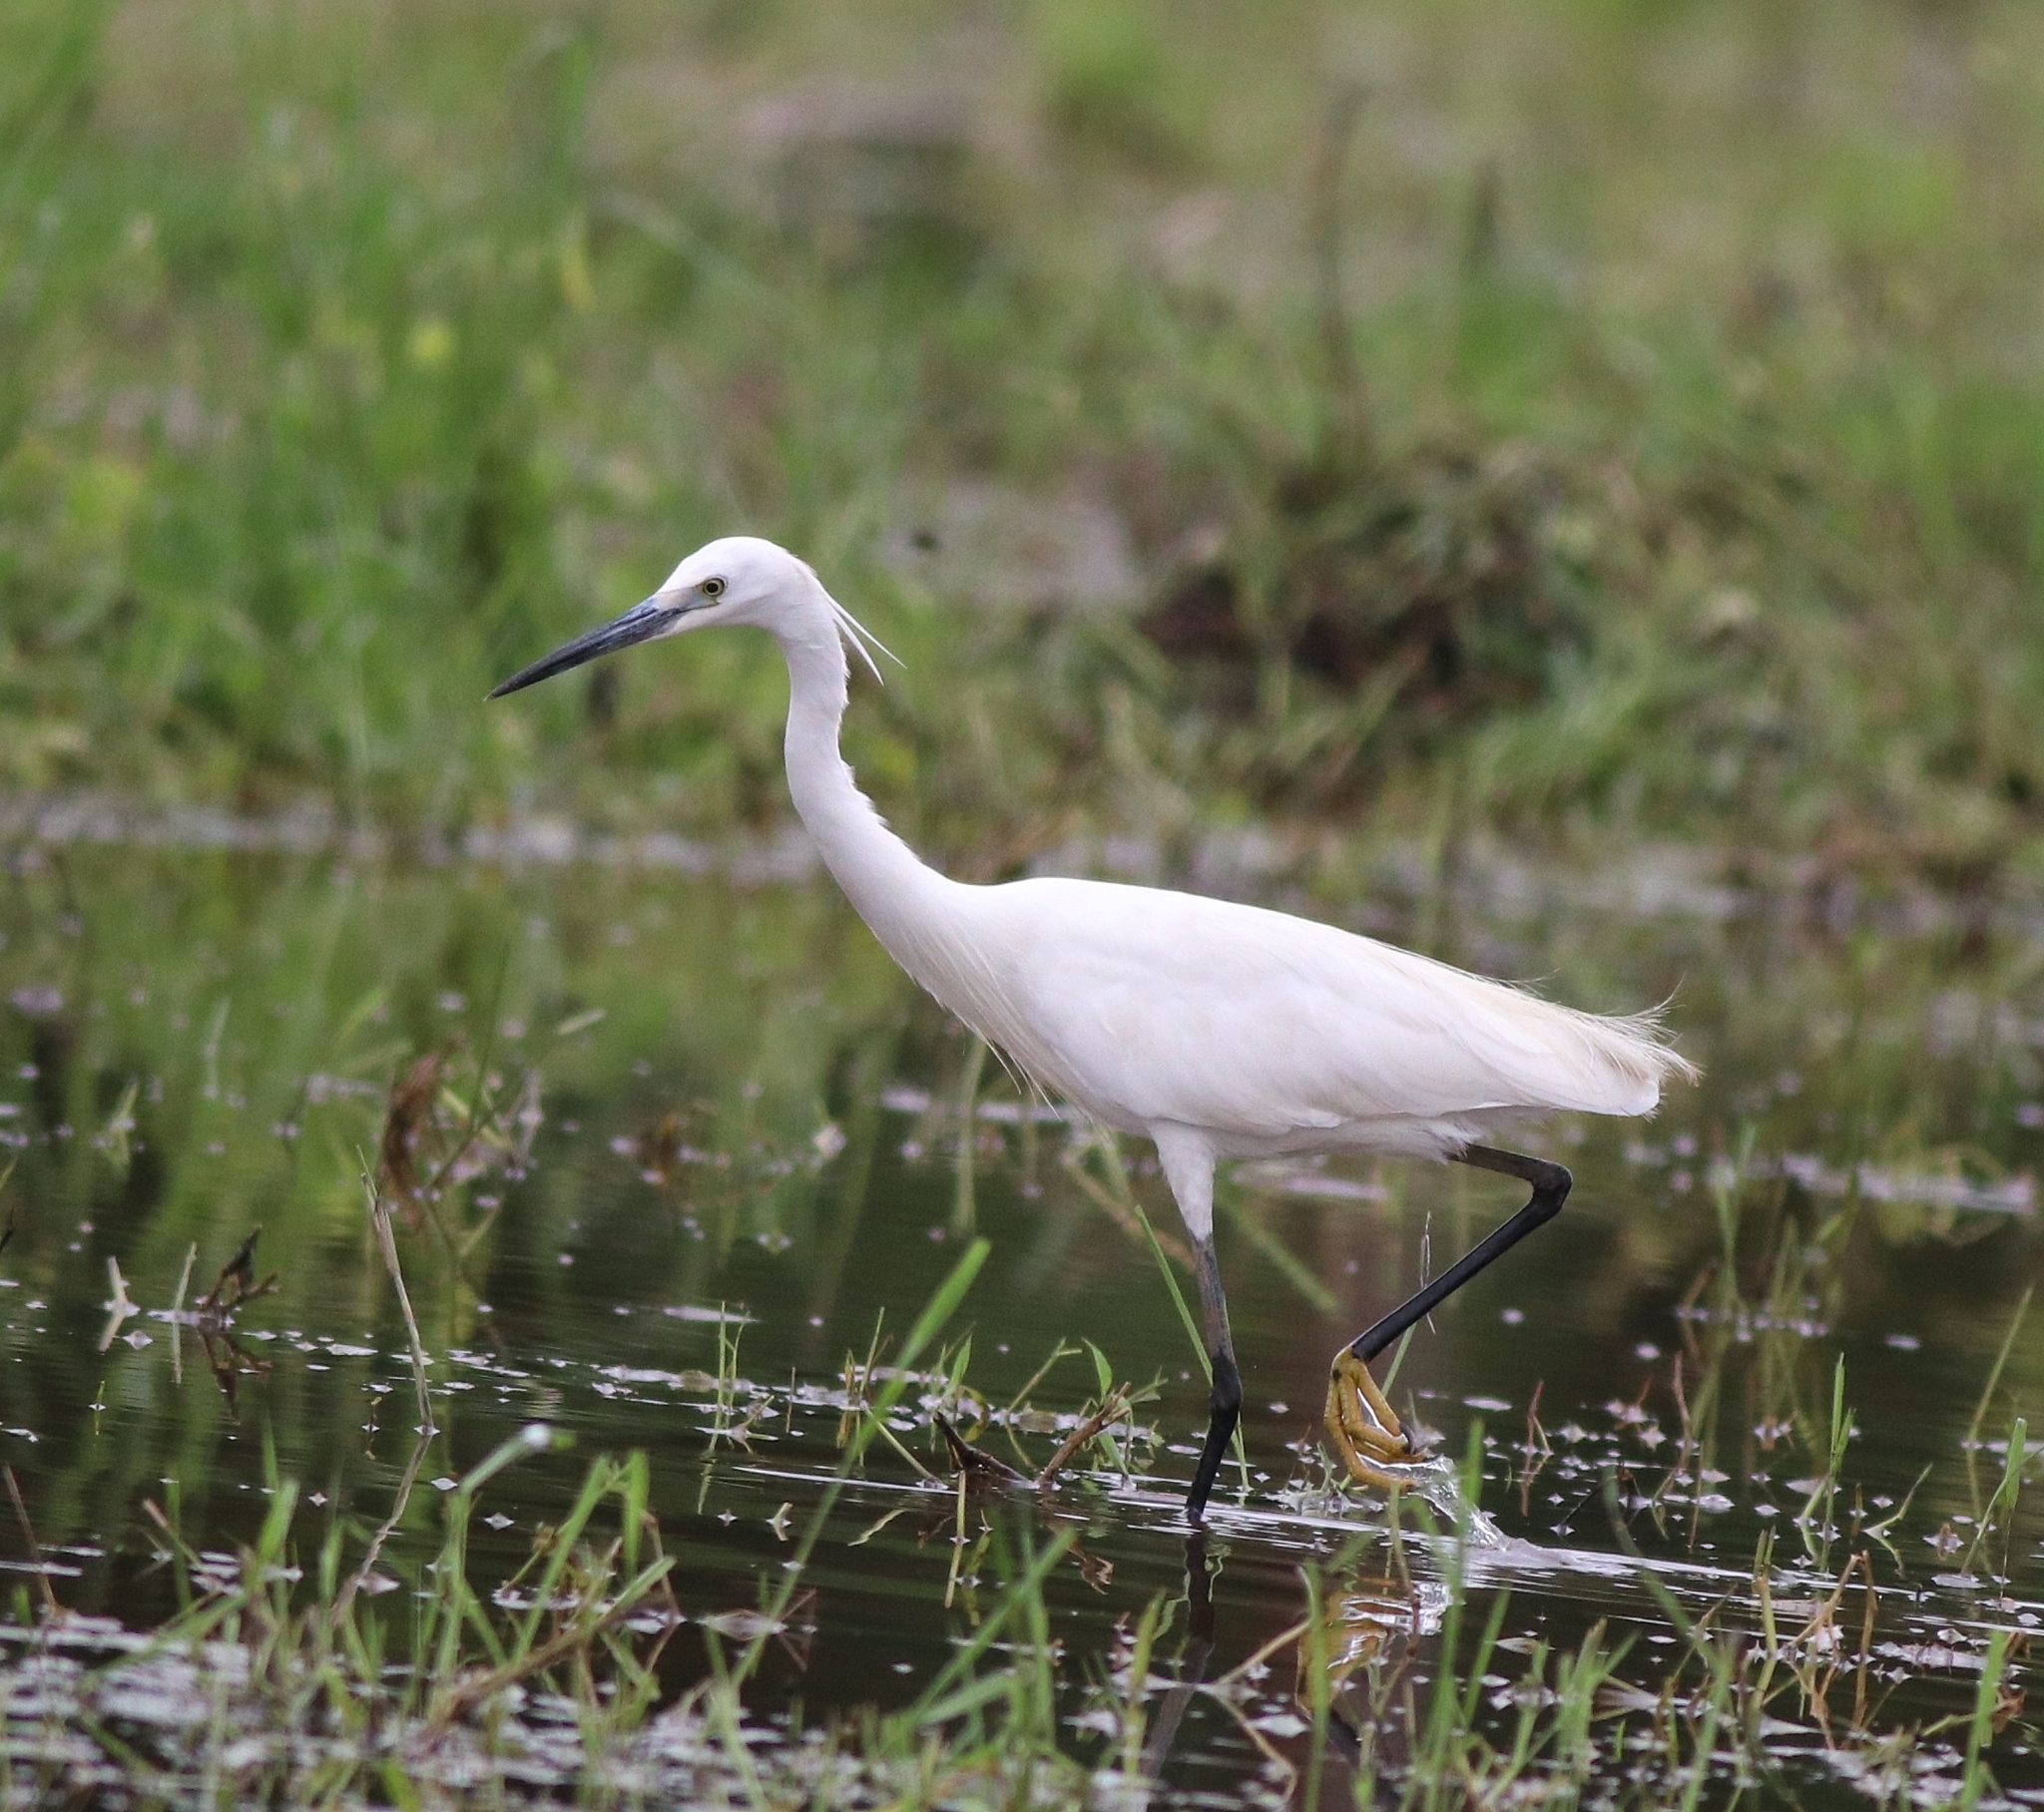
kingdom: Animalia
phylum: Chordata
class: Aves
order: Pelecaniformes
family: Ardeidae
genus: Egretta
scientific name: Egretta garzetta
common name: Little egret
